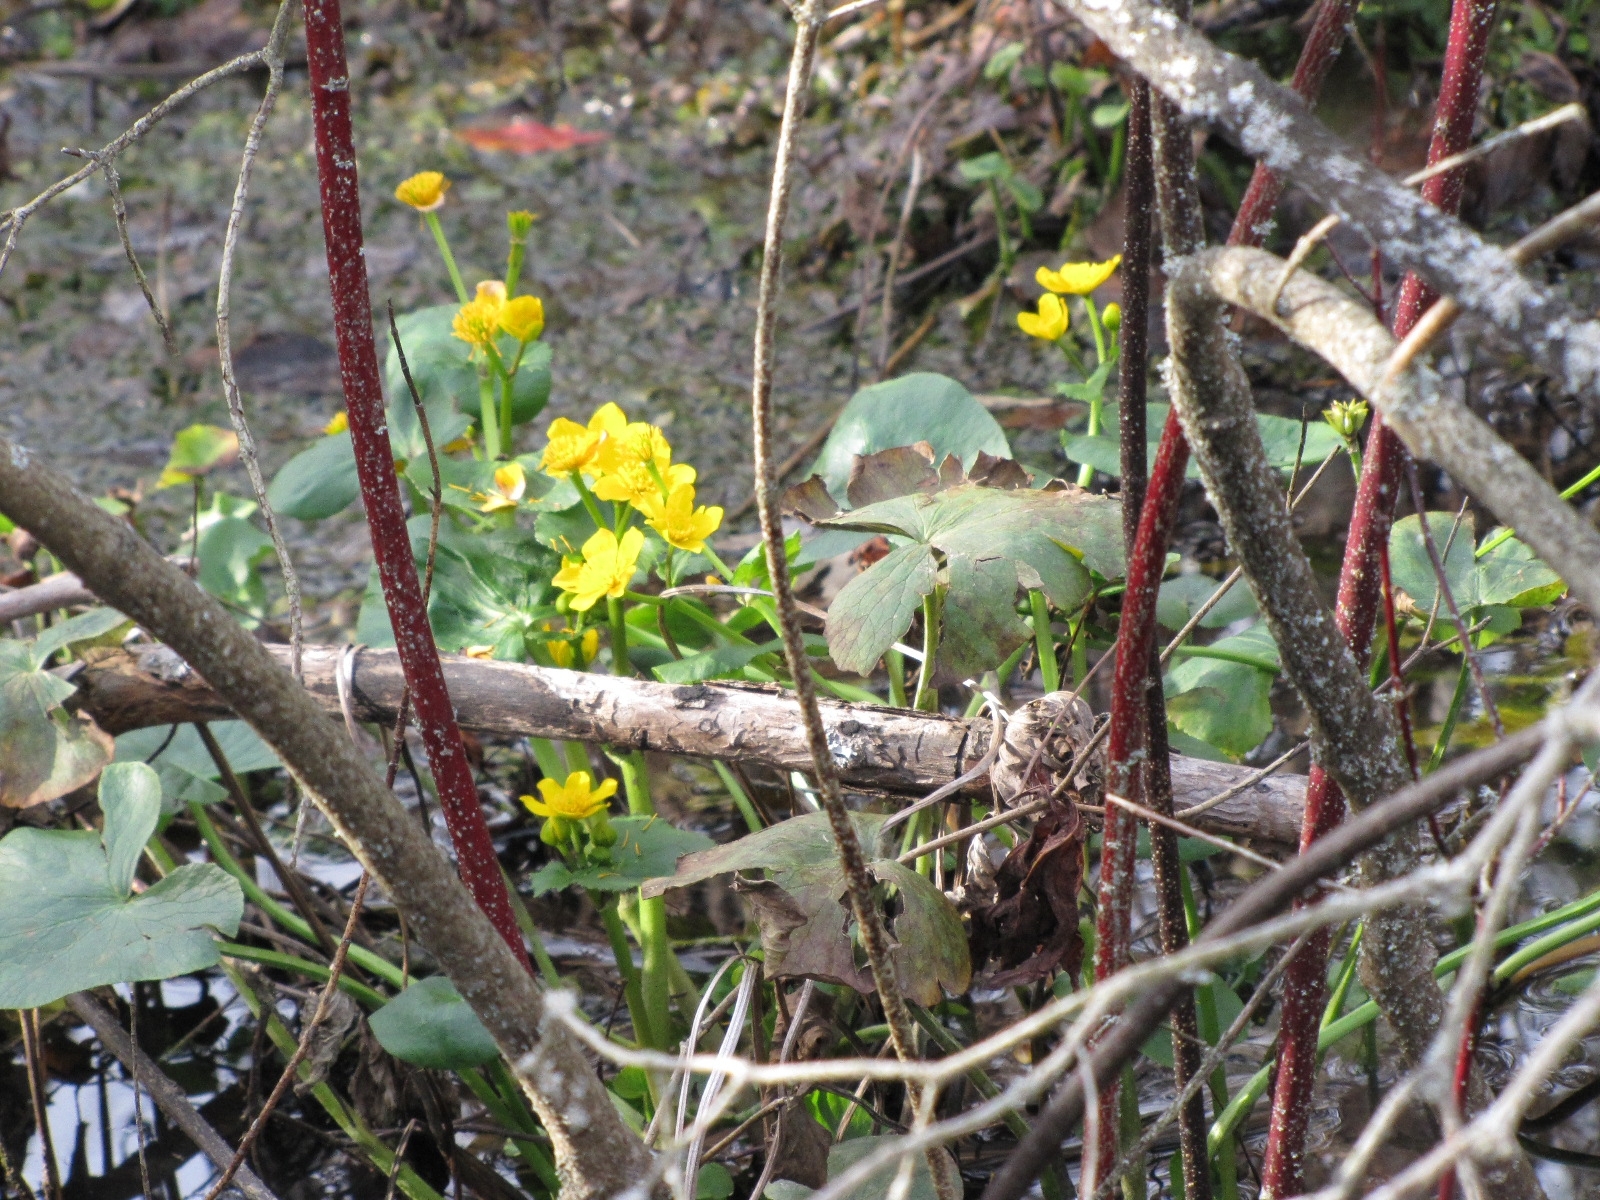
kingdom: Plantae
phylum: Tracheophyta
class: Magnoliopsida
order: Ranunculales
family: Ranunculaceae
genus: Caltha
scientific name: Caltha palustris
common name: Marsh marigold
